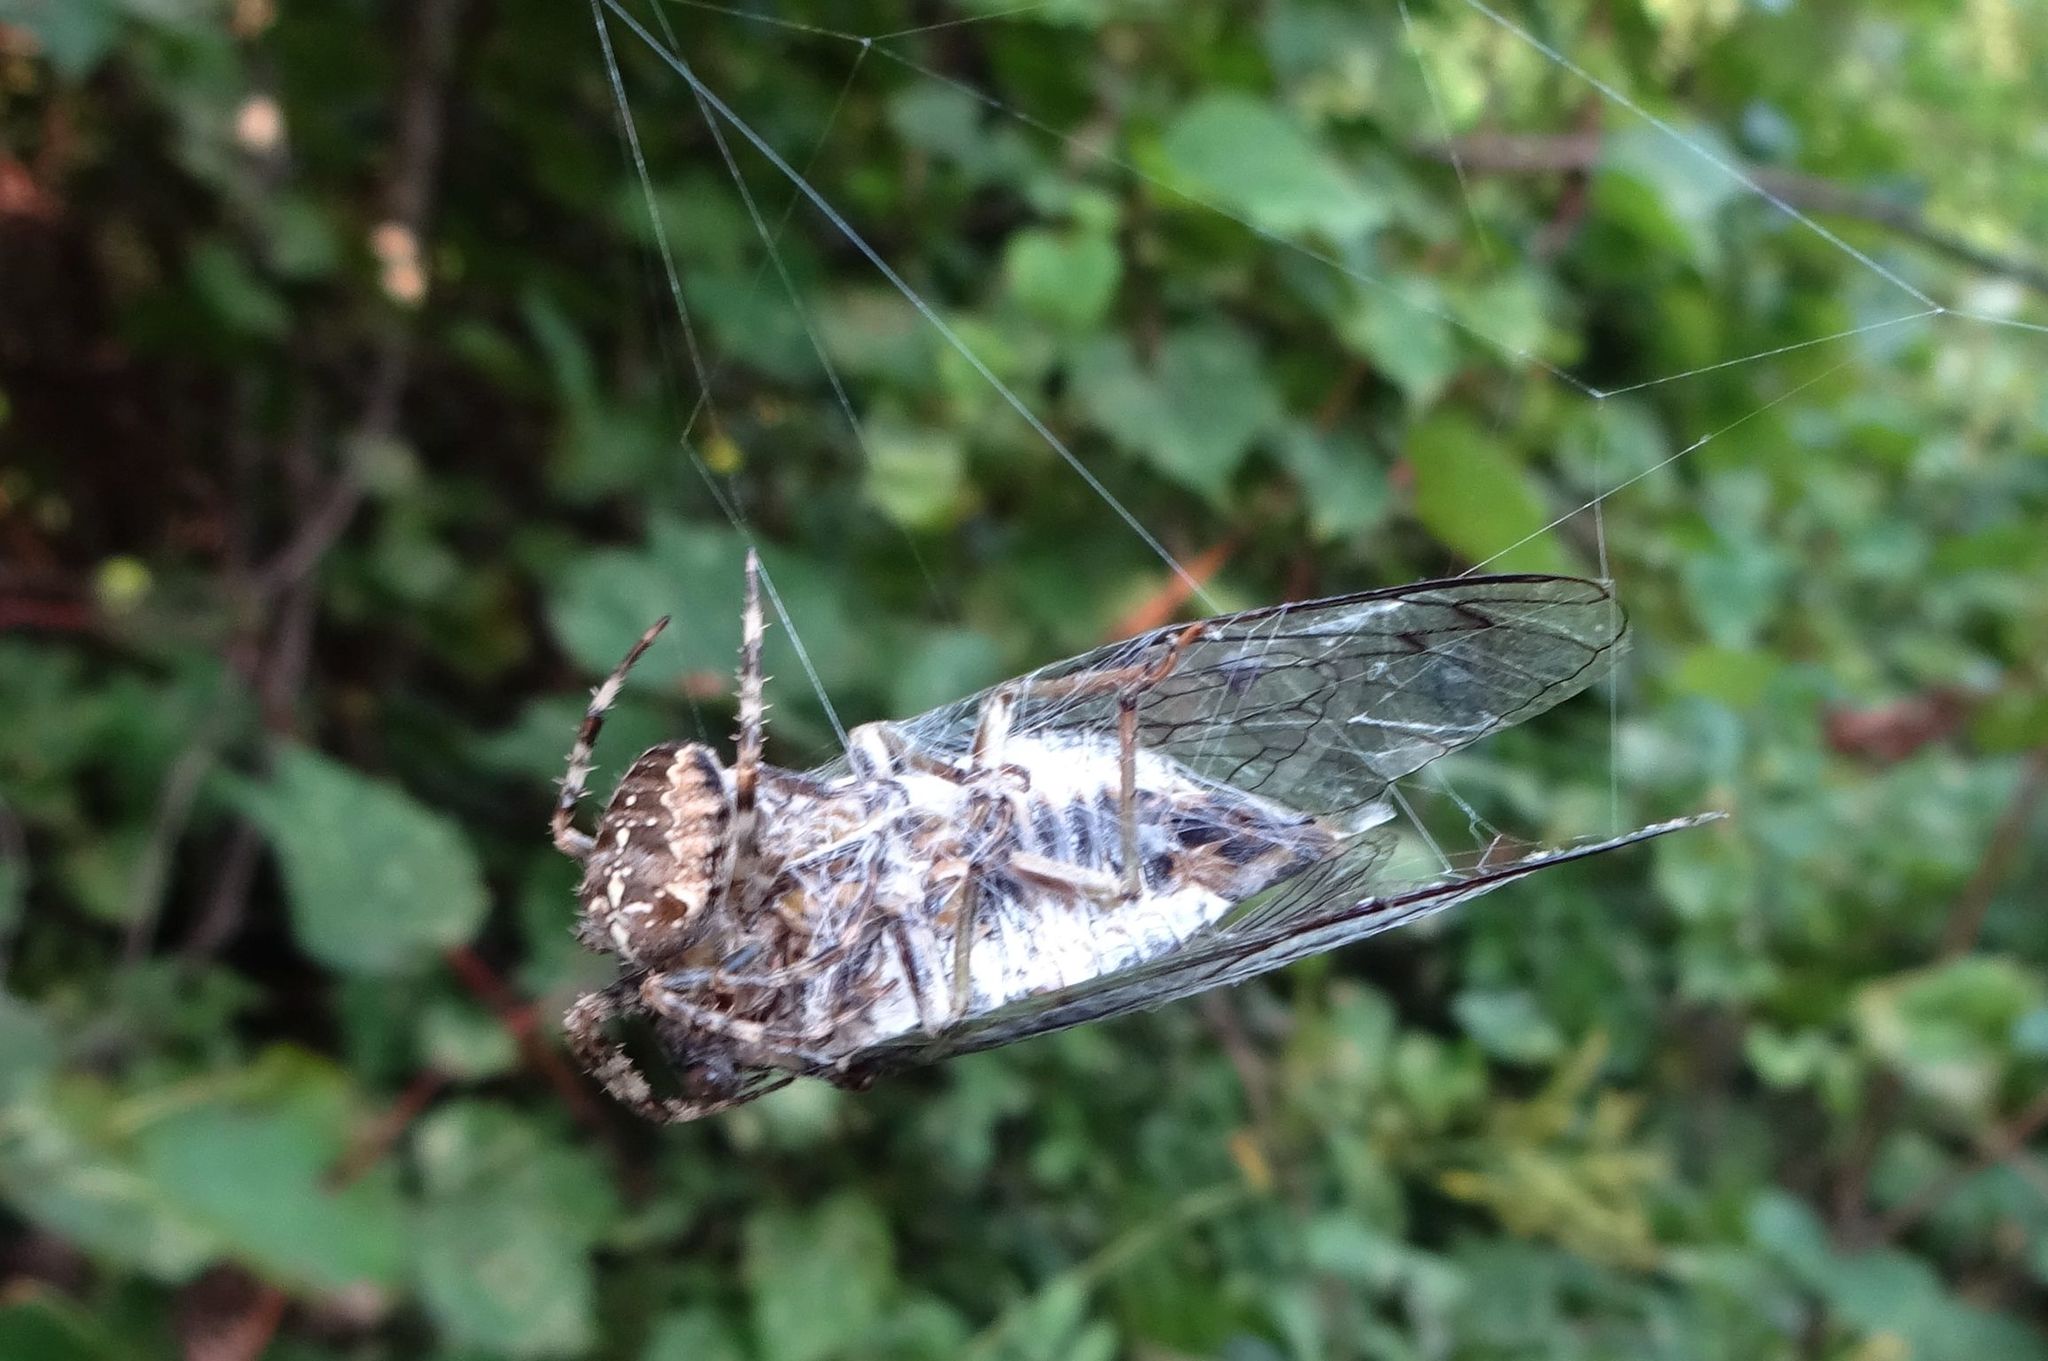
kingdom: Animalia
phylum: Arthropoda
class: Arachnida
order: Araneae
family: Araneidae
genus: Araneus
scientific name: Araneus diadematus
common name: Cross orbweaver
